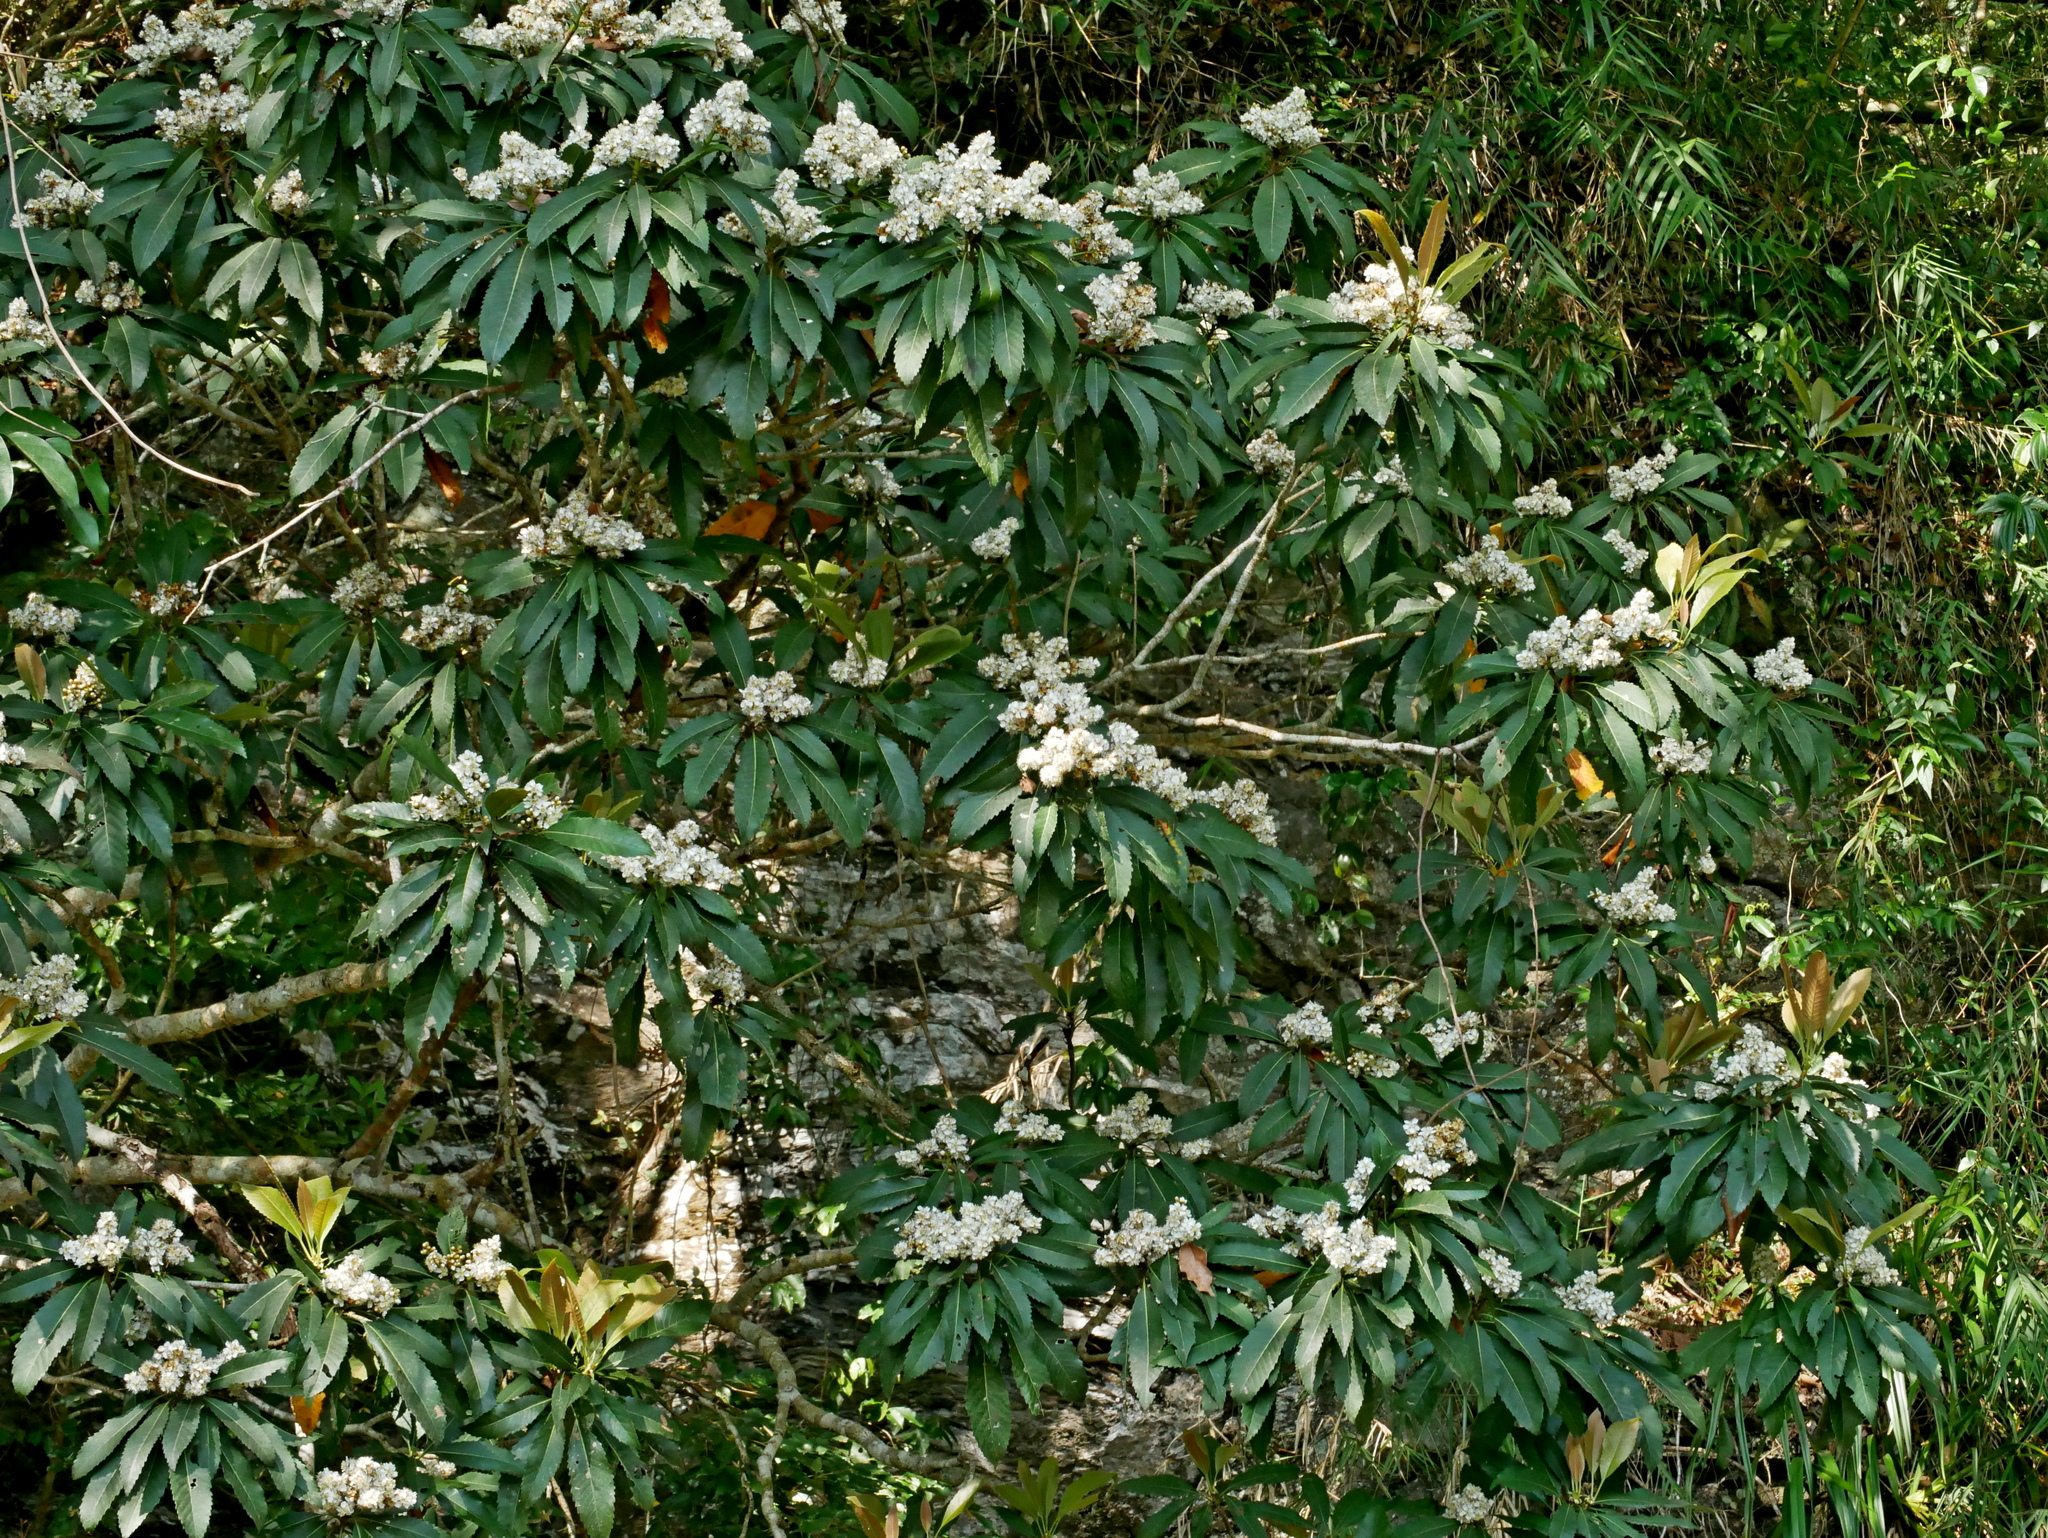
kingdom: Plantae
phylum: Tracheophyta
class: Magnoliopsida
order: Rosales
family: Rosaceae
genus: Rhaphiolepis
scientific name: Rhaphiolepis deflexa
